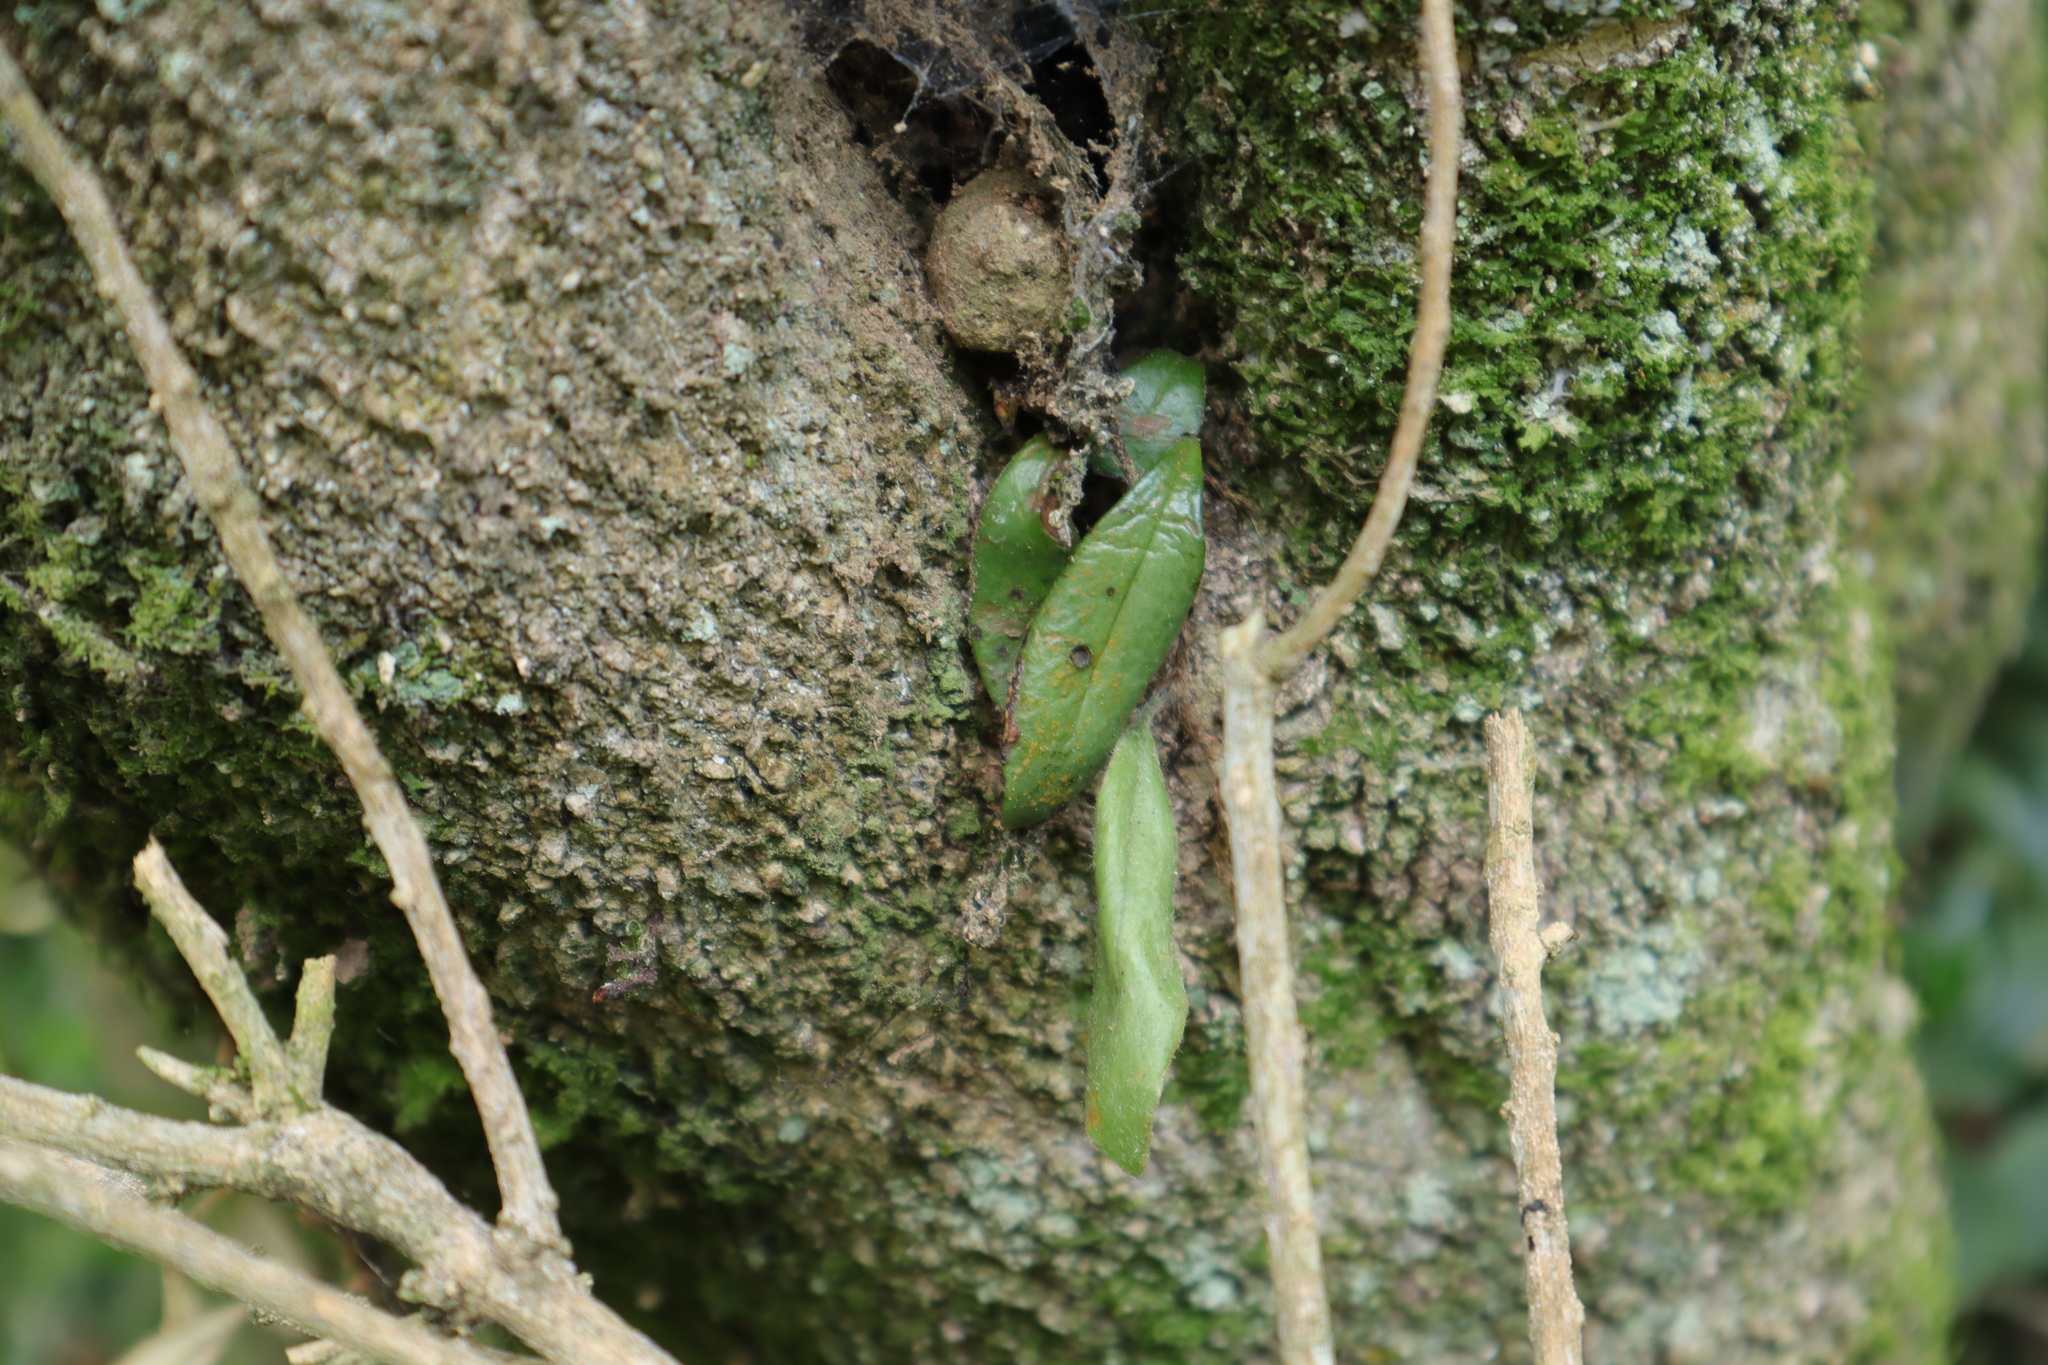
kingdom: Plantae
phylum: Tracheophyta
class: Polypodiopsida
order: Polypodiales
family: Polypodiaceae
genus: Pyrrosia
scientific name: Pyrrosia eleagnifolia
